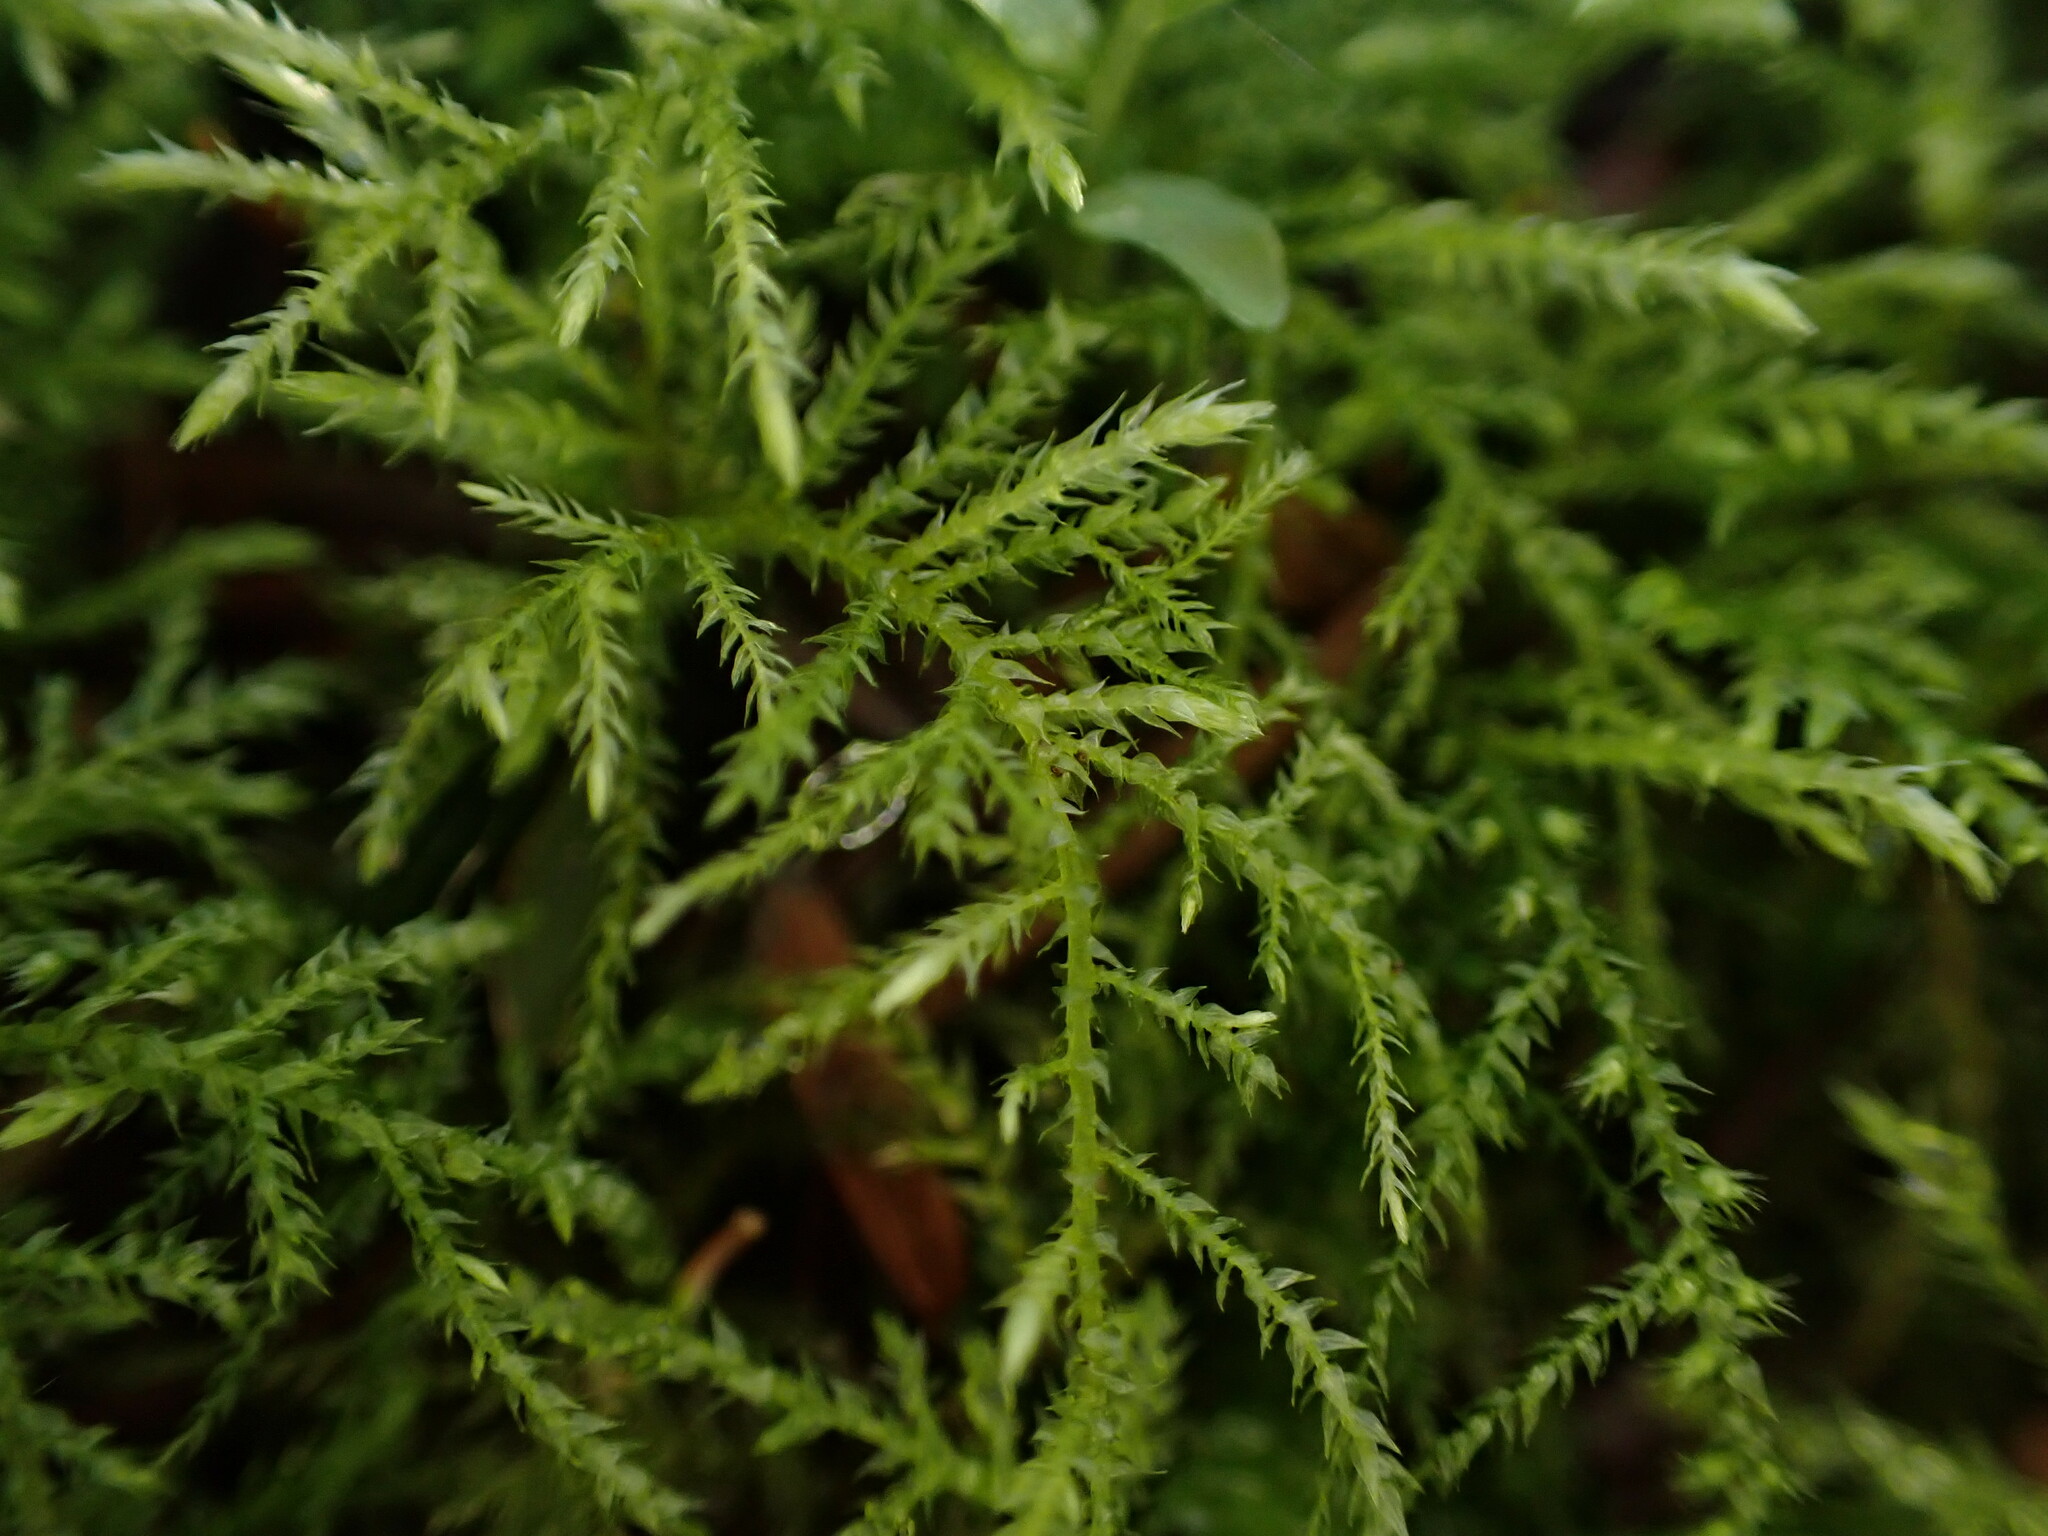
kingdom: Plantae
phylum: Bryophyta
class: Bryopsida
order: Hypnales
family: Brachytheciaceae
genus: Kindbergia
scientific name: Kindbergia praelonga
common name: Slender beaked moss
